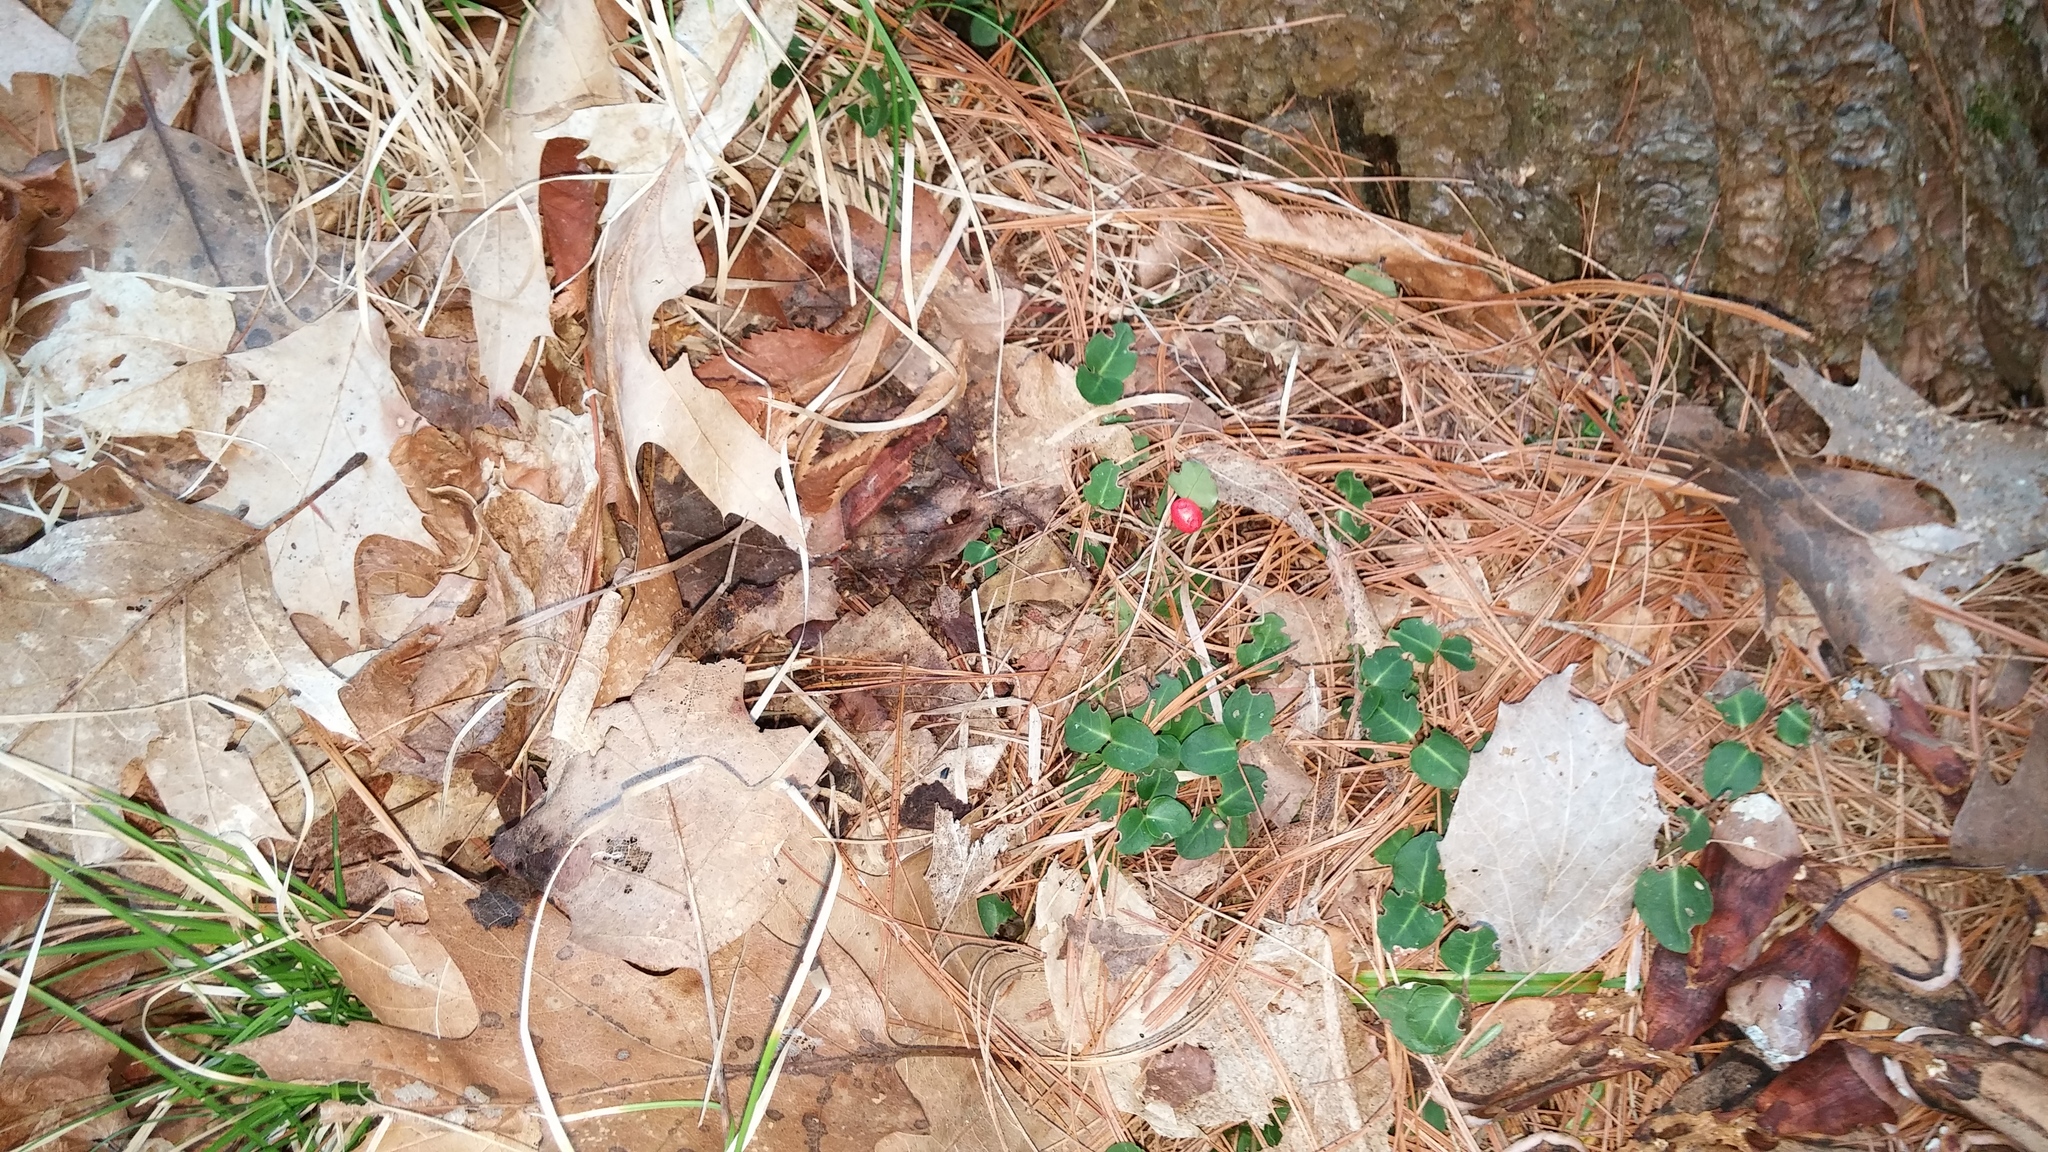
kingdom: Plantae
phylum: Tracheophyta
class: Magnoliopsida
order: Gentianales
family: Rubiaceae
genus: Mitchella
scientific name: Mitchella repens
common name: Partridge-berry
